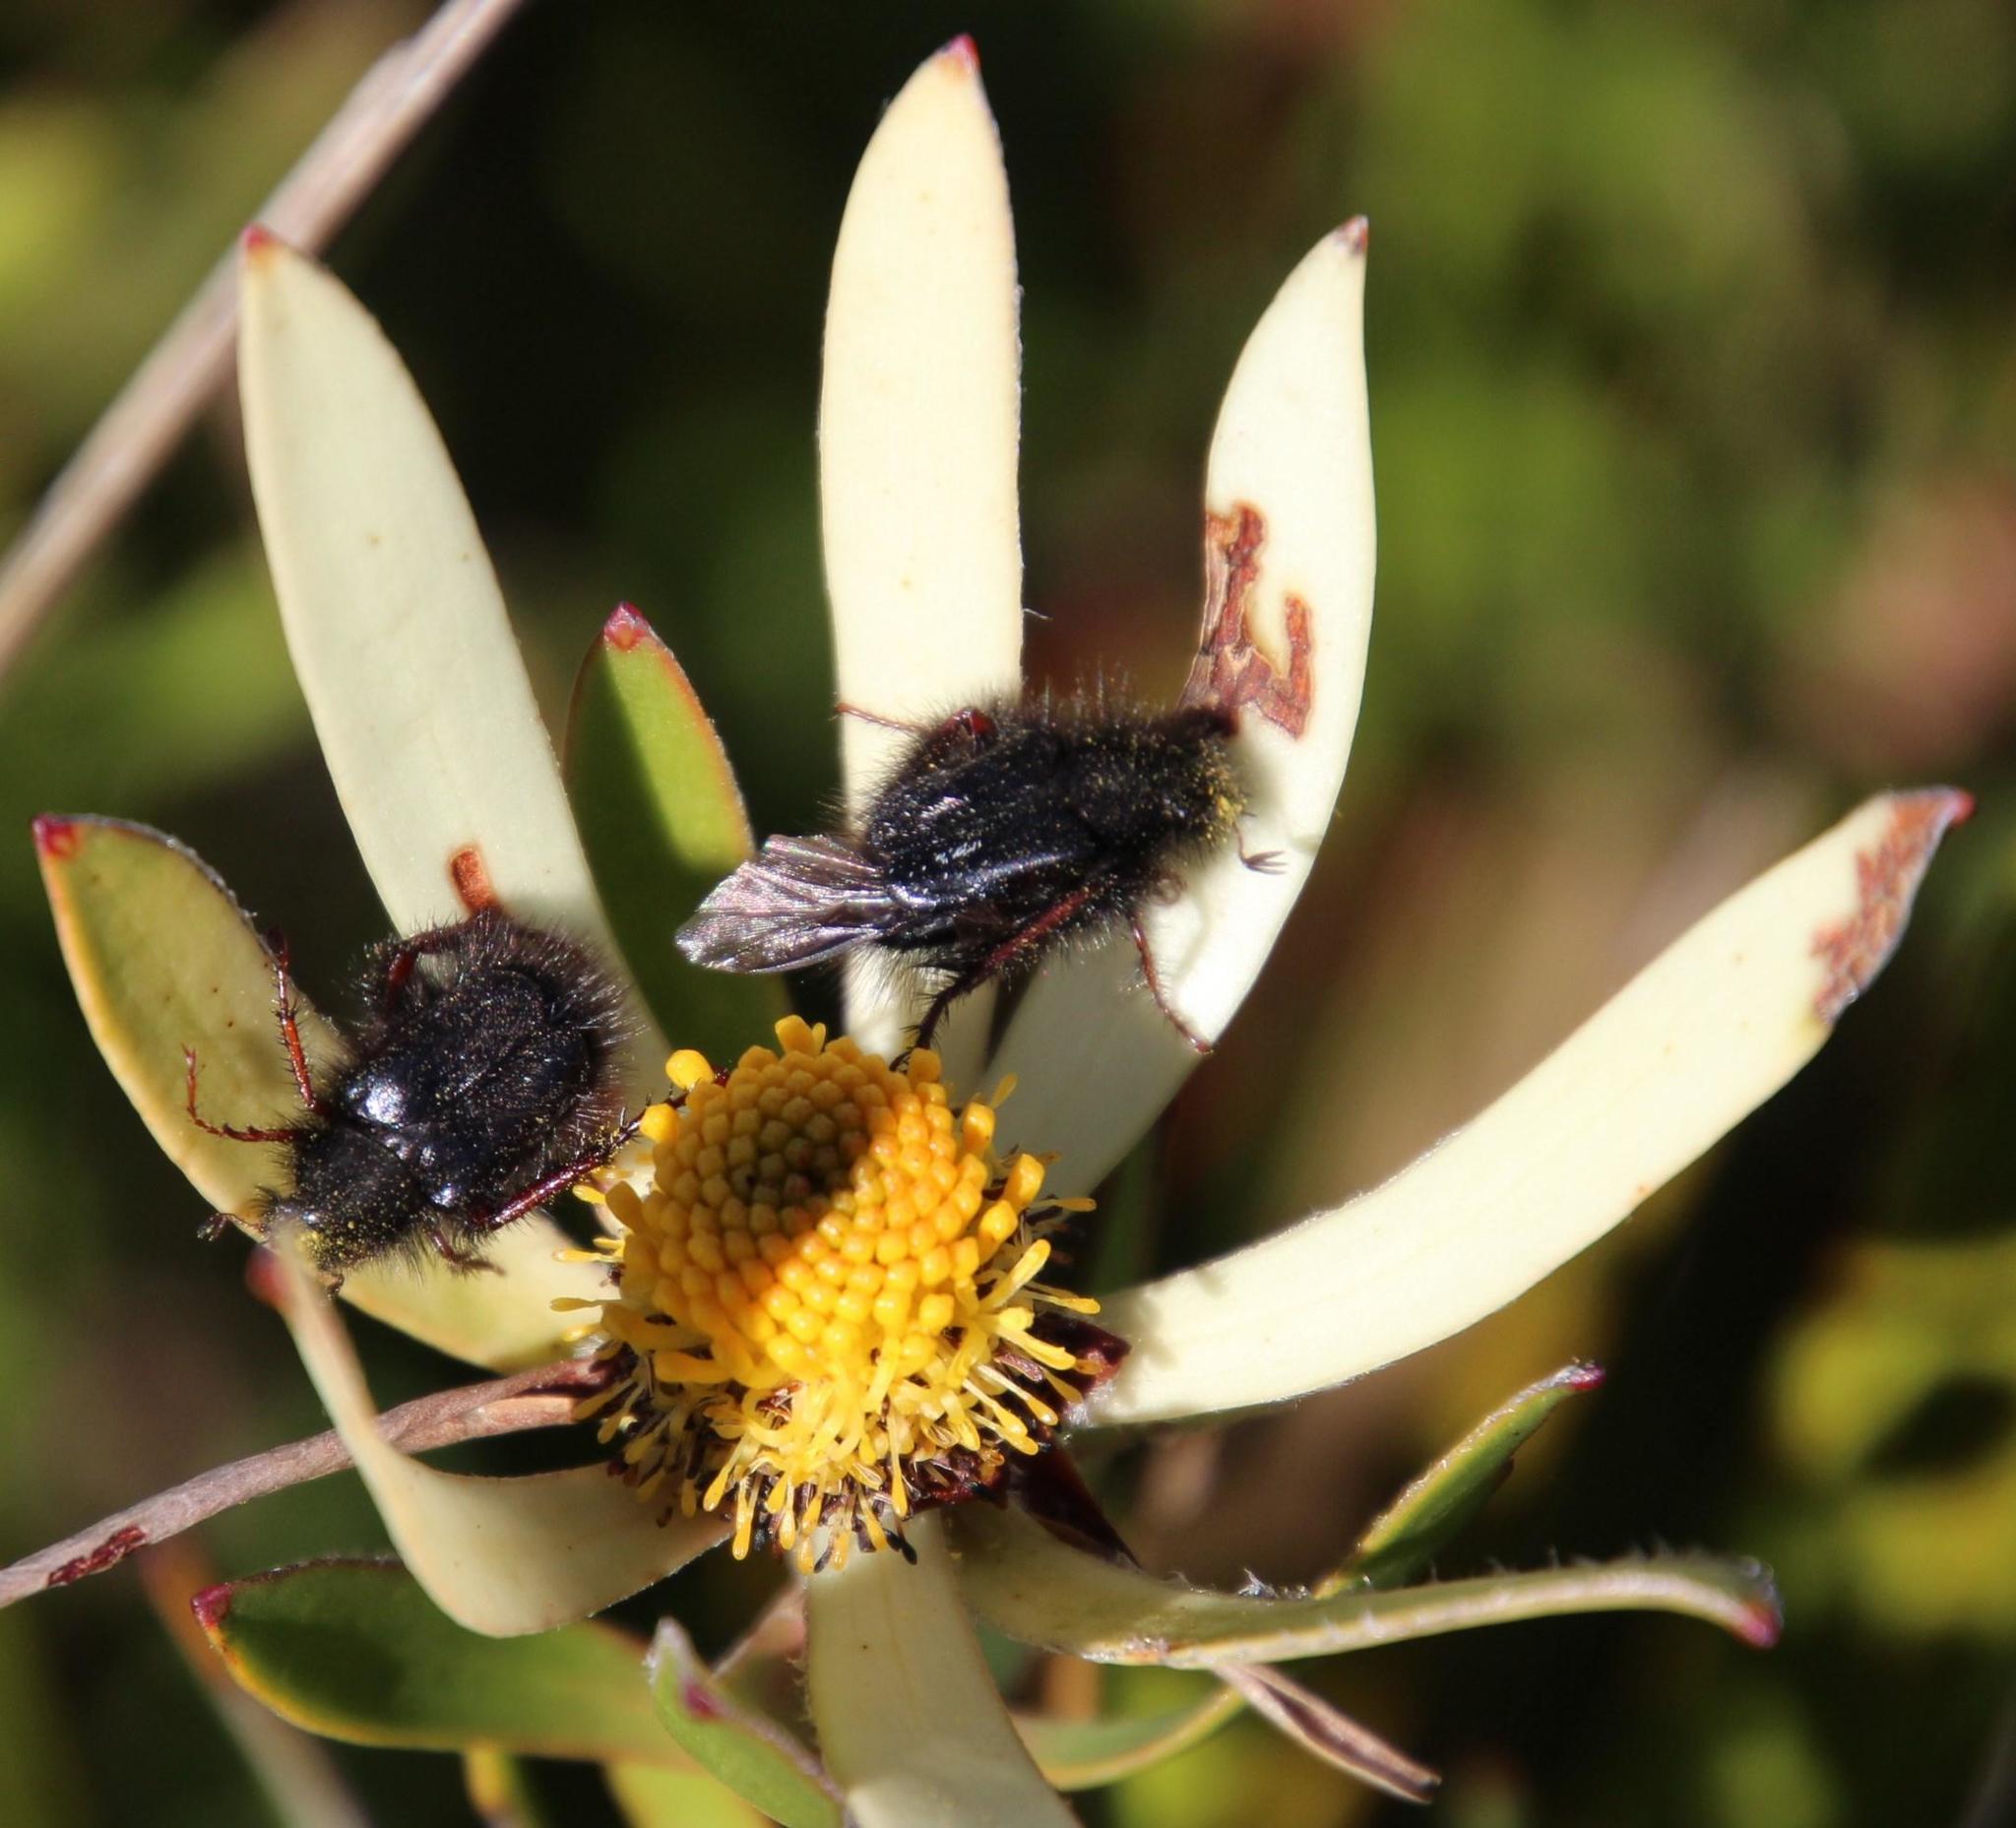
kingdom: Plantae
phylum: Tracheophyta
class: Magnoliopsida
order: Proteales
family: Proteaceae
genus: Leucadendron
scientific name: Leucadendron spissifolium
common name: Spear-leaf conebush
